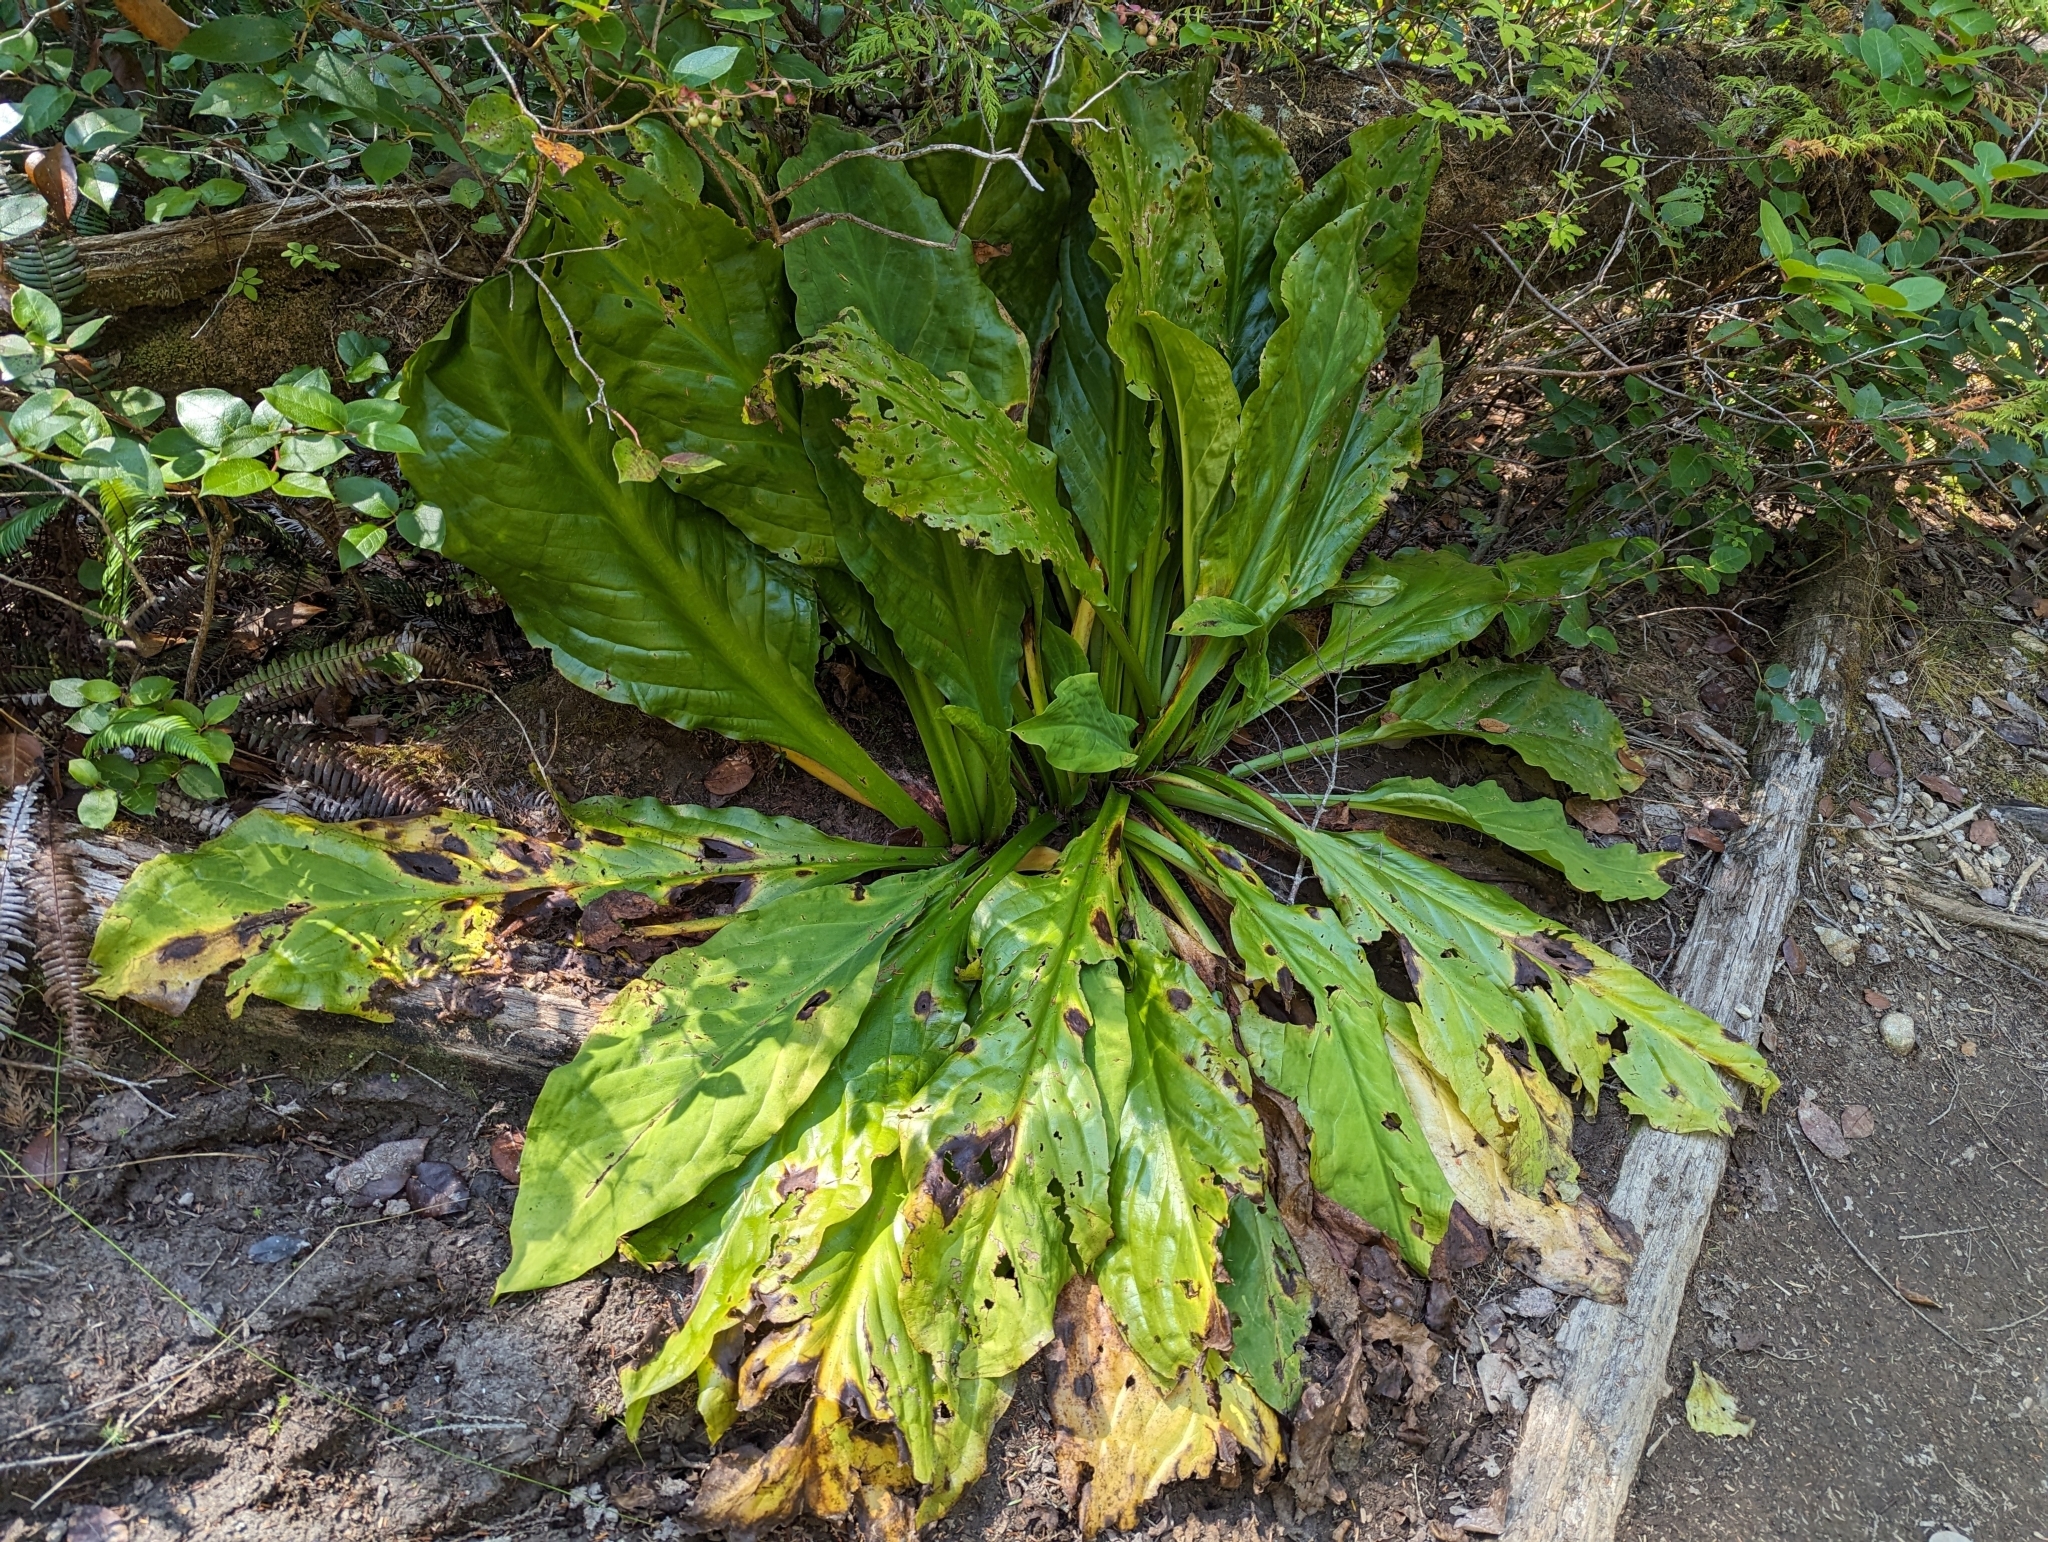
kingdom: Plantae
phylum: Tracheophyta
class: Liliopsida
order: Alismatales
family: Araceae
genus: Lysichiton
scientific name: Lysichiton americanus
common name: American skunk cabbage
